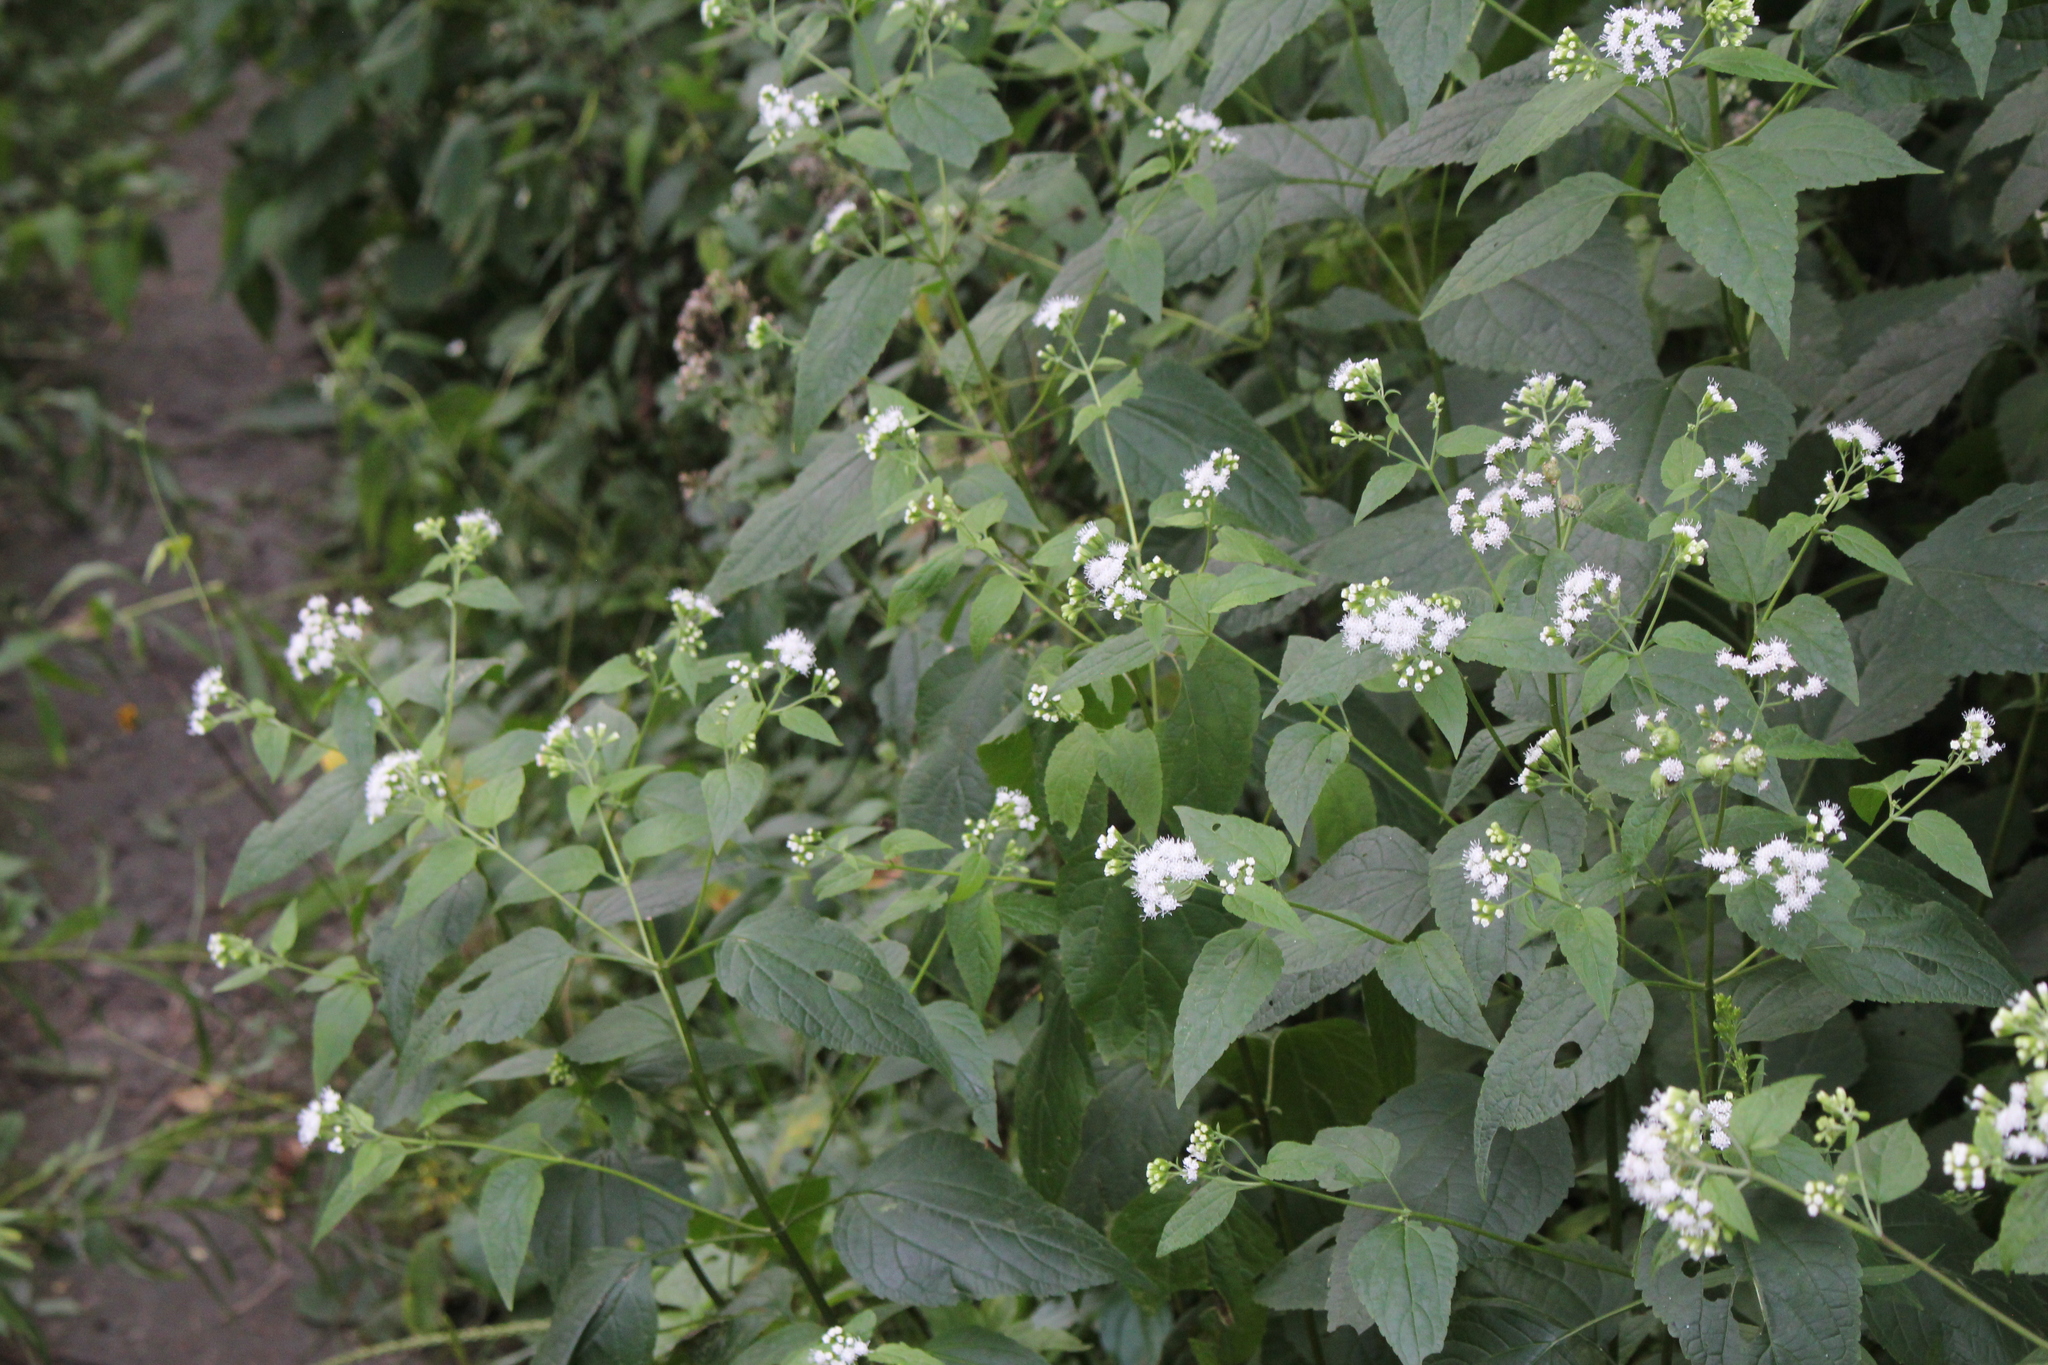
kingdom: Plantae
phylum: Tracheophyta
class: Magnoliopsida
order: Asterales
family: Asteraceae
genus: Ageratina
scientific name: Ageratina altissima
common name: White snakeroot
